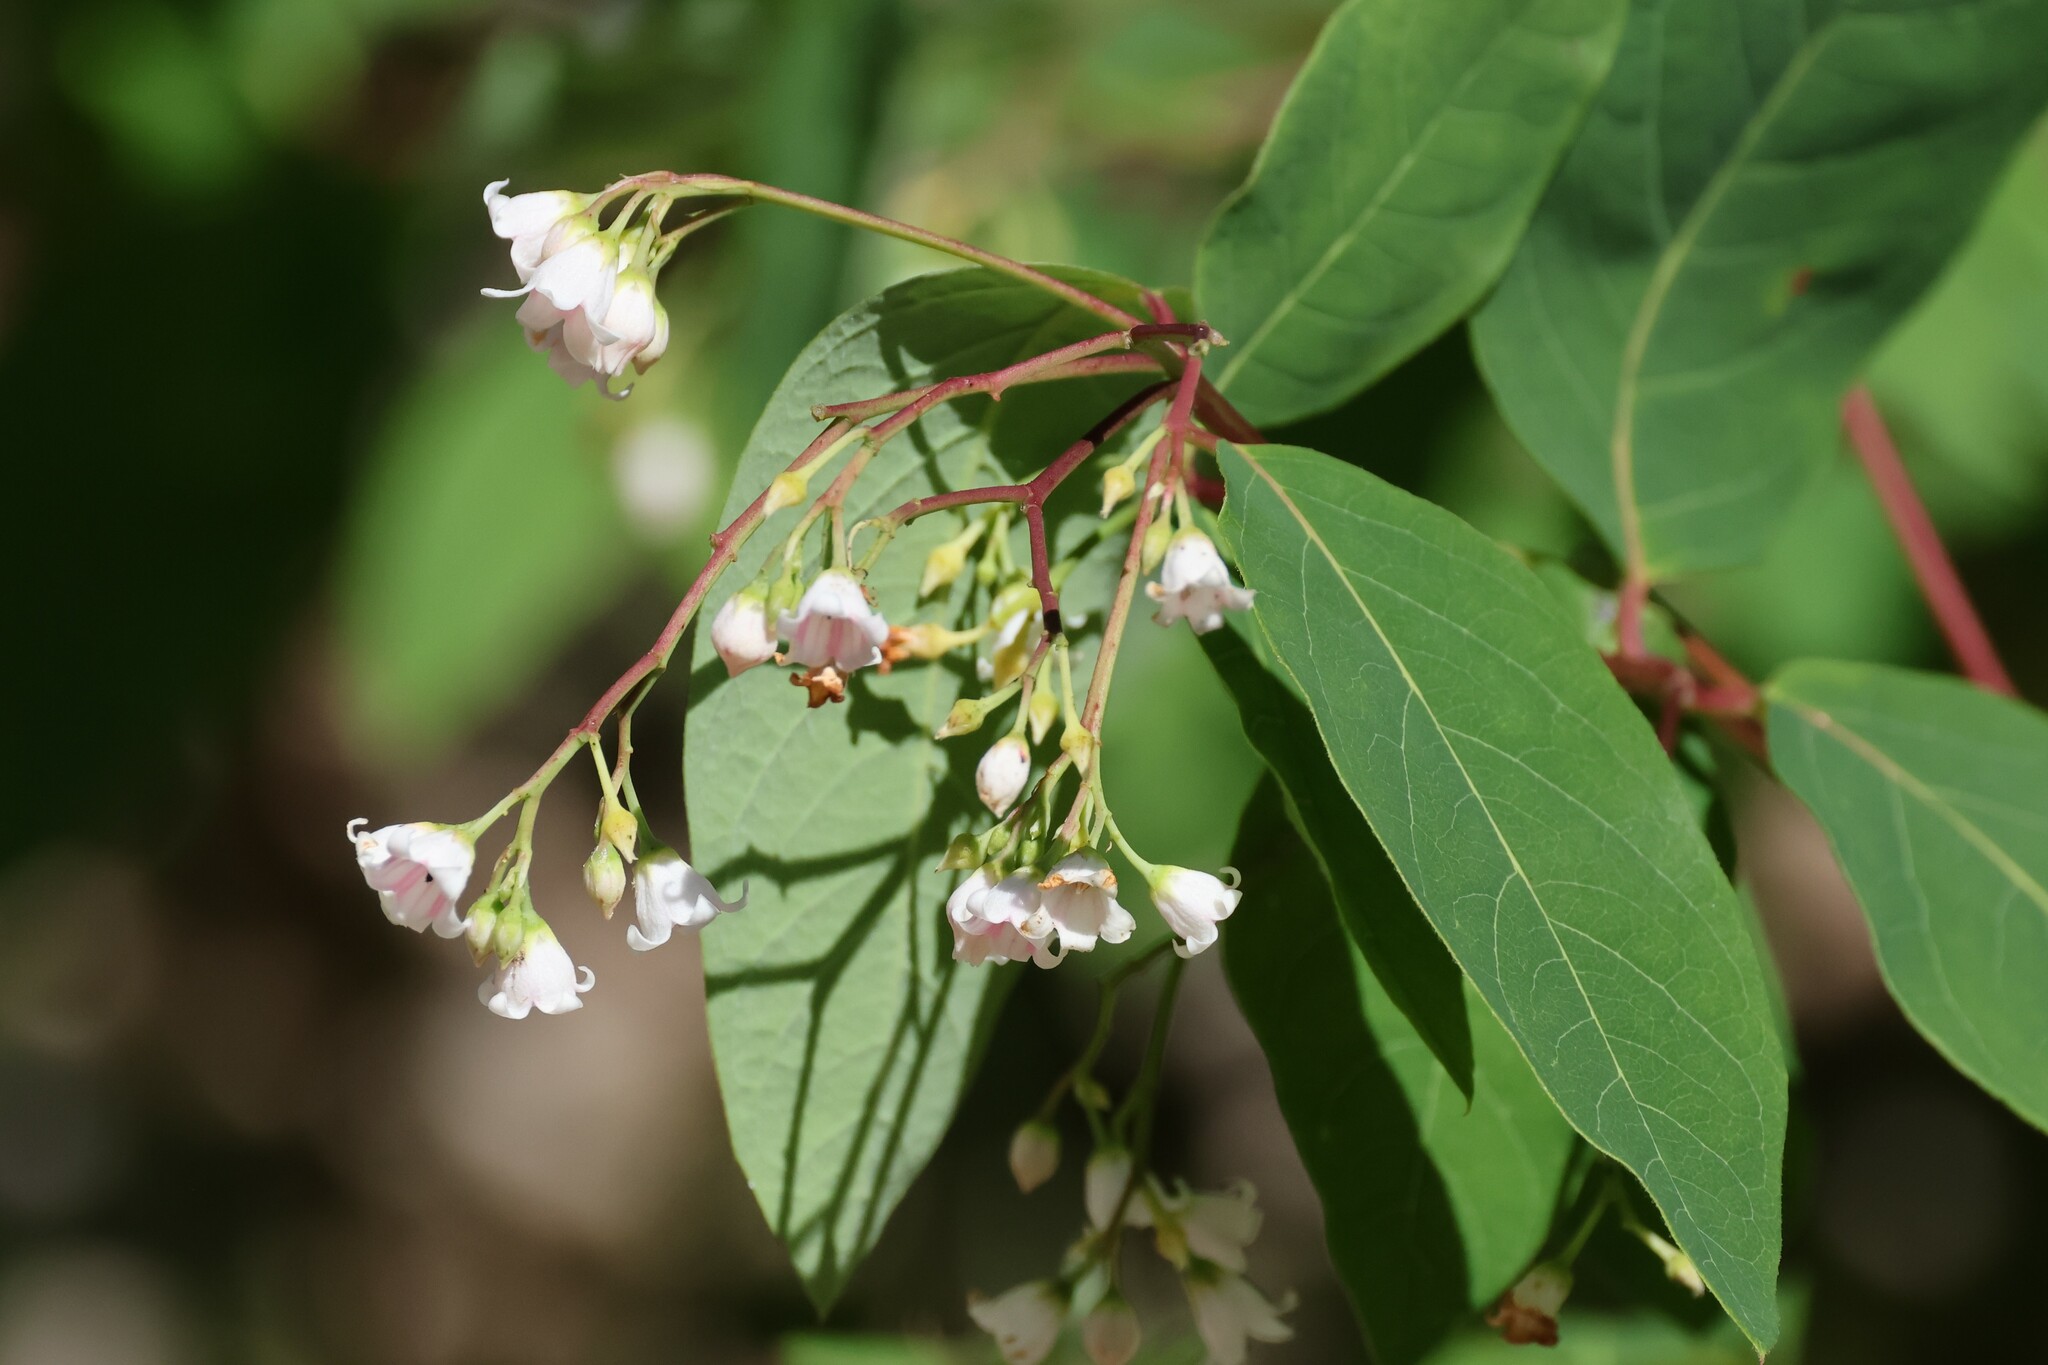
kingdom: Plantae
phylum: Tracheophyta
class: Magnoliopsida
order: Gentianales
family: Apocynaceae
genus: Apocynum
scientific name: Apocynum androsaemifolium
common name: Spreading dogbane
